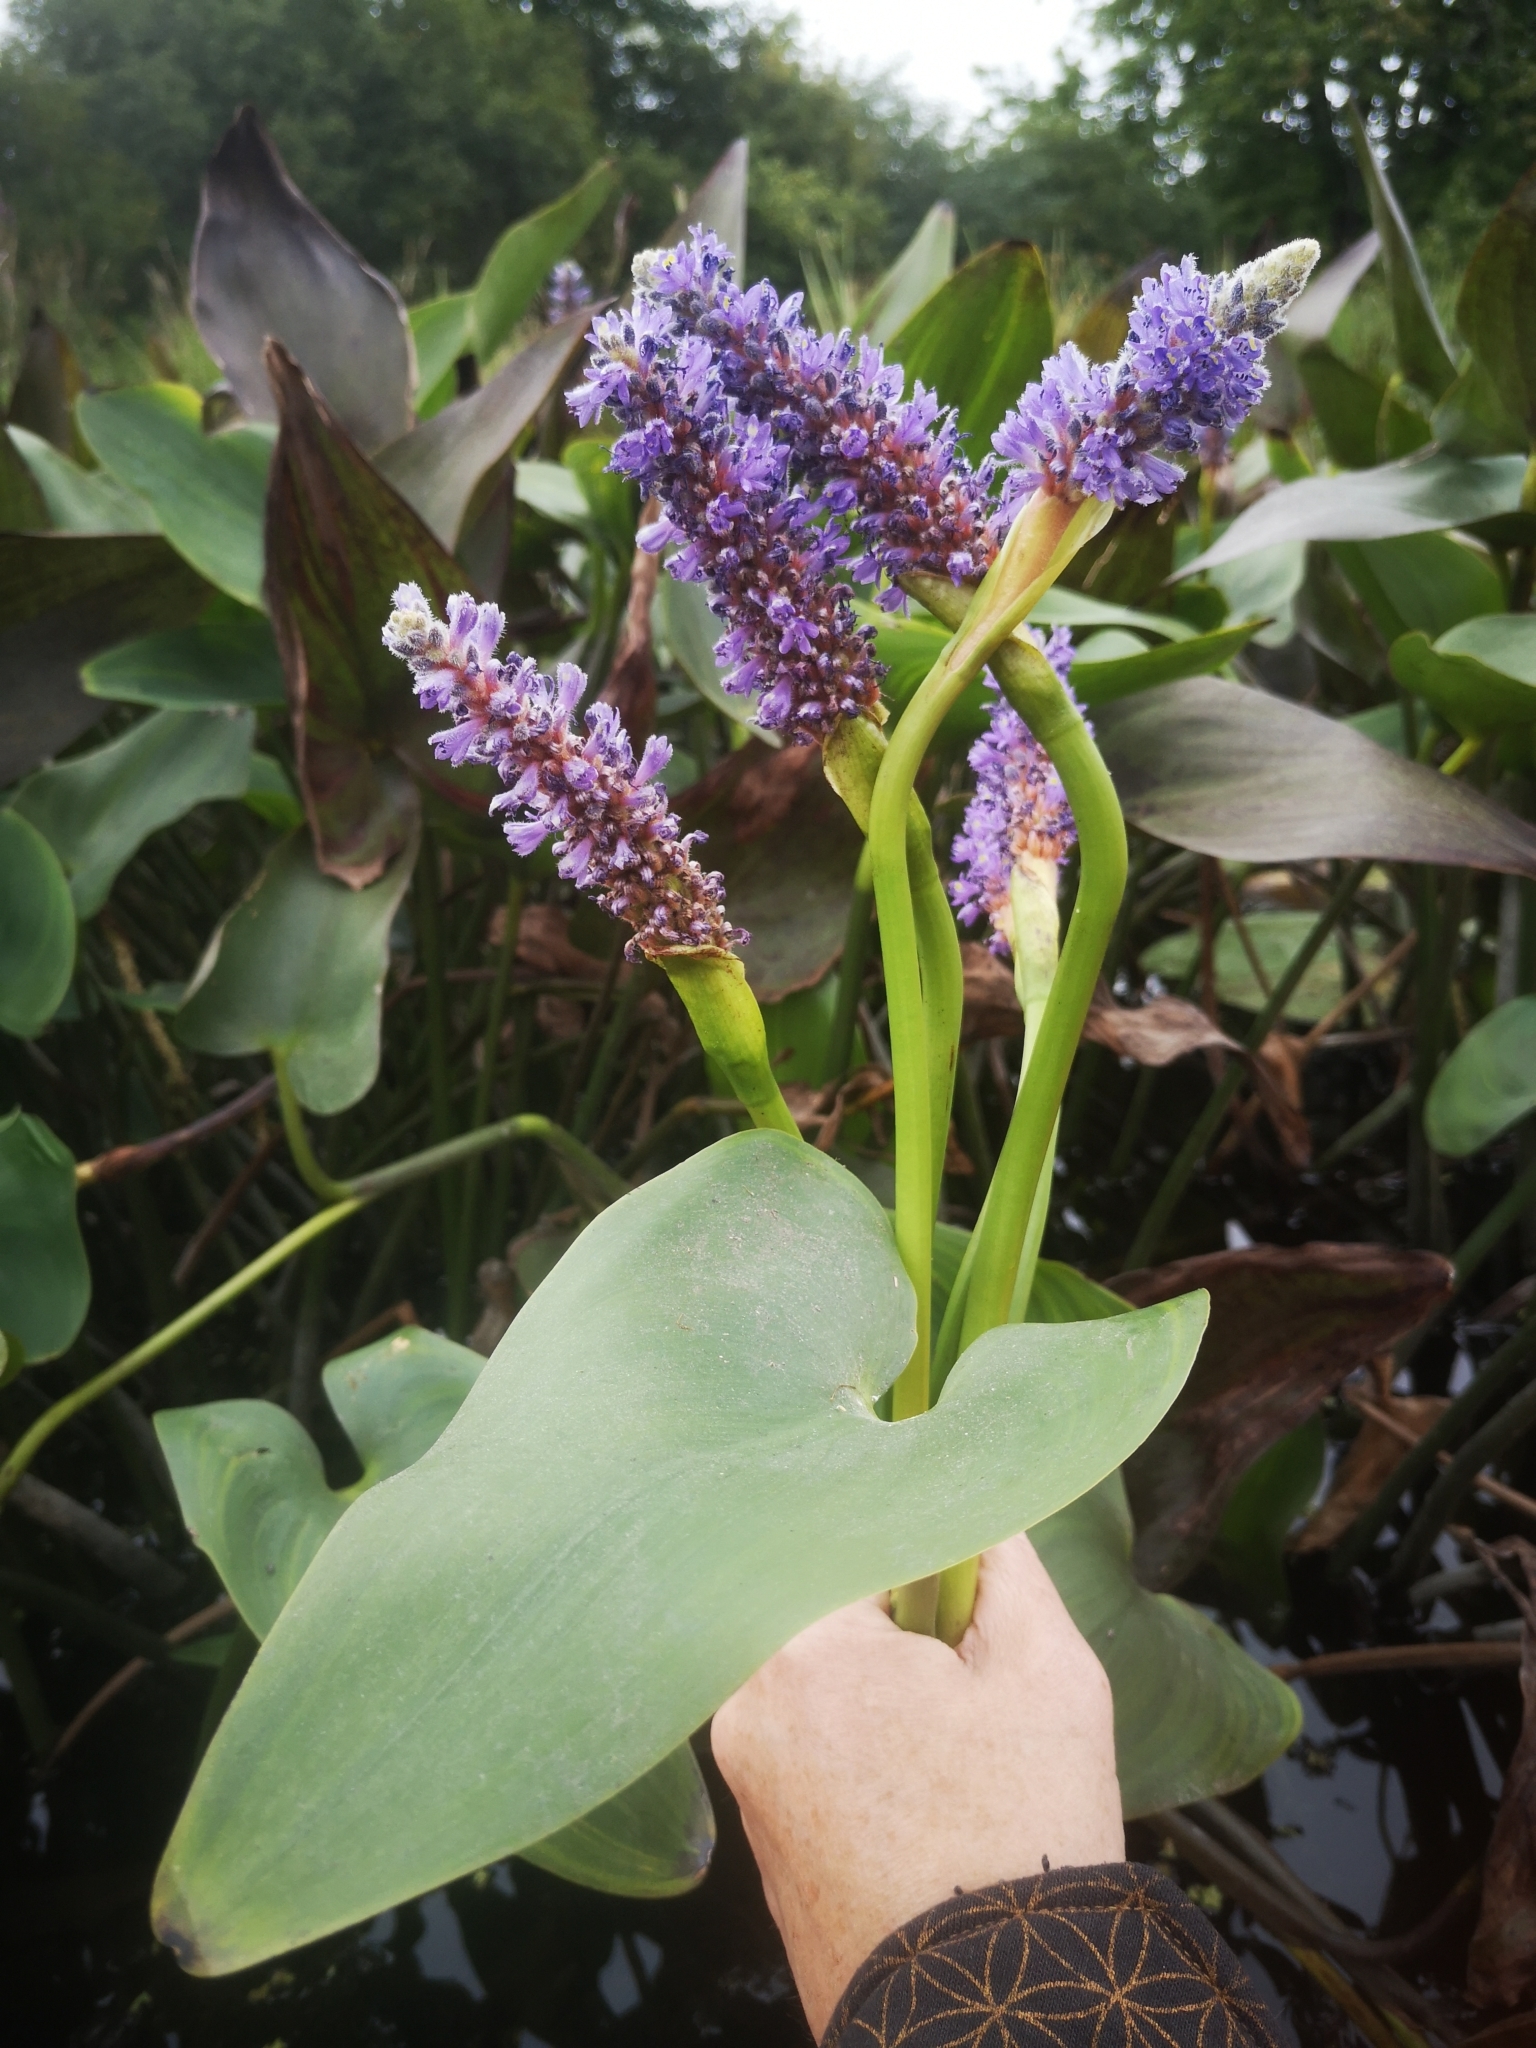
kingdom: Plantae
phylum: Tracheophyta
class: Liliopsida
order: Commelinales
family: Pontederiaceae
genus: Pontederia
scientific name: Pontederia cordata
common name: Pickerelweed
